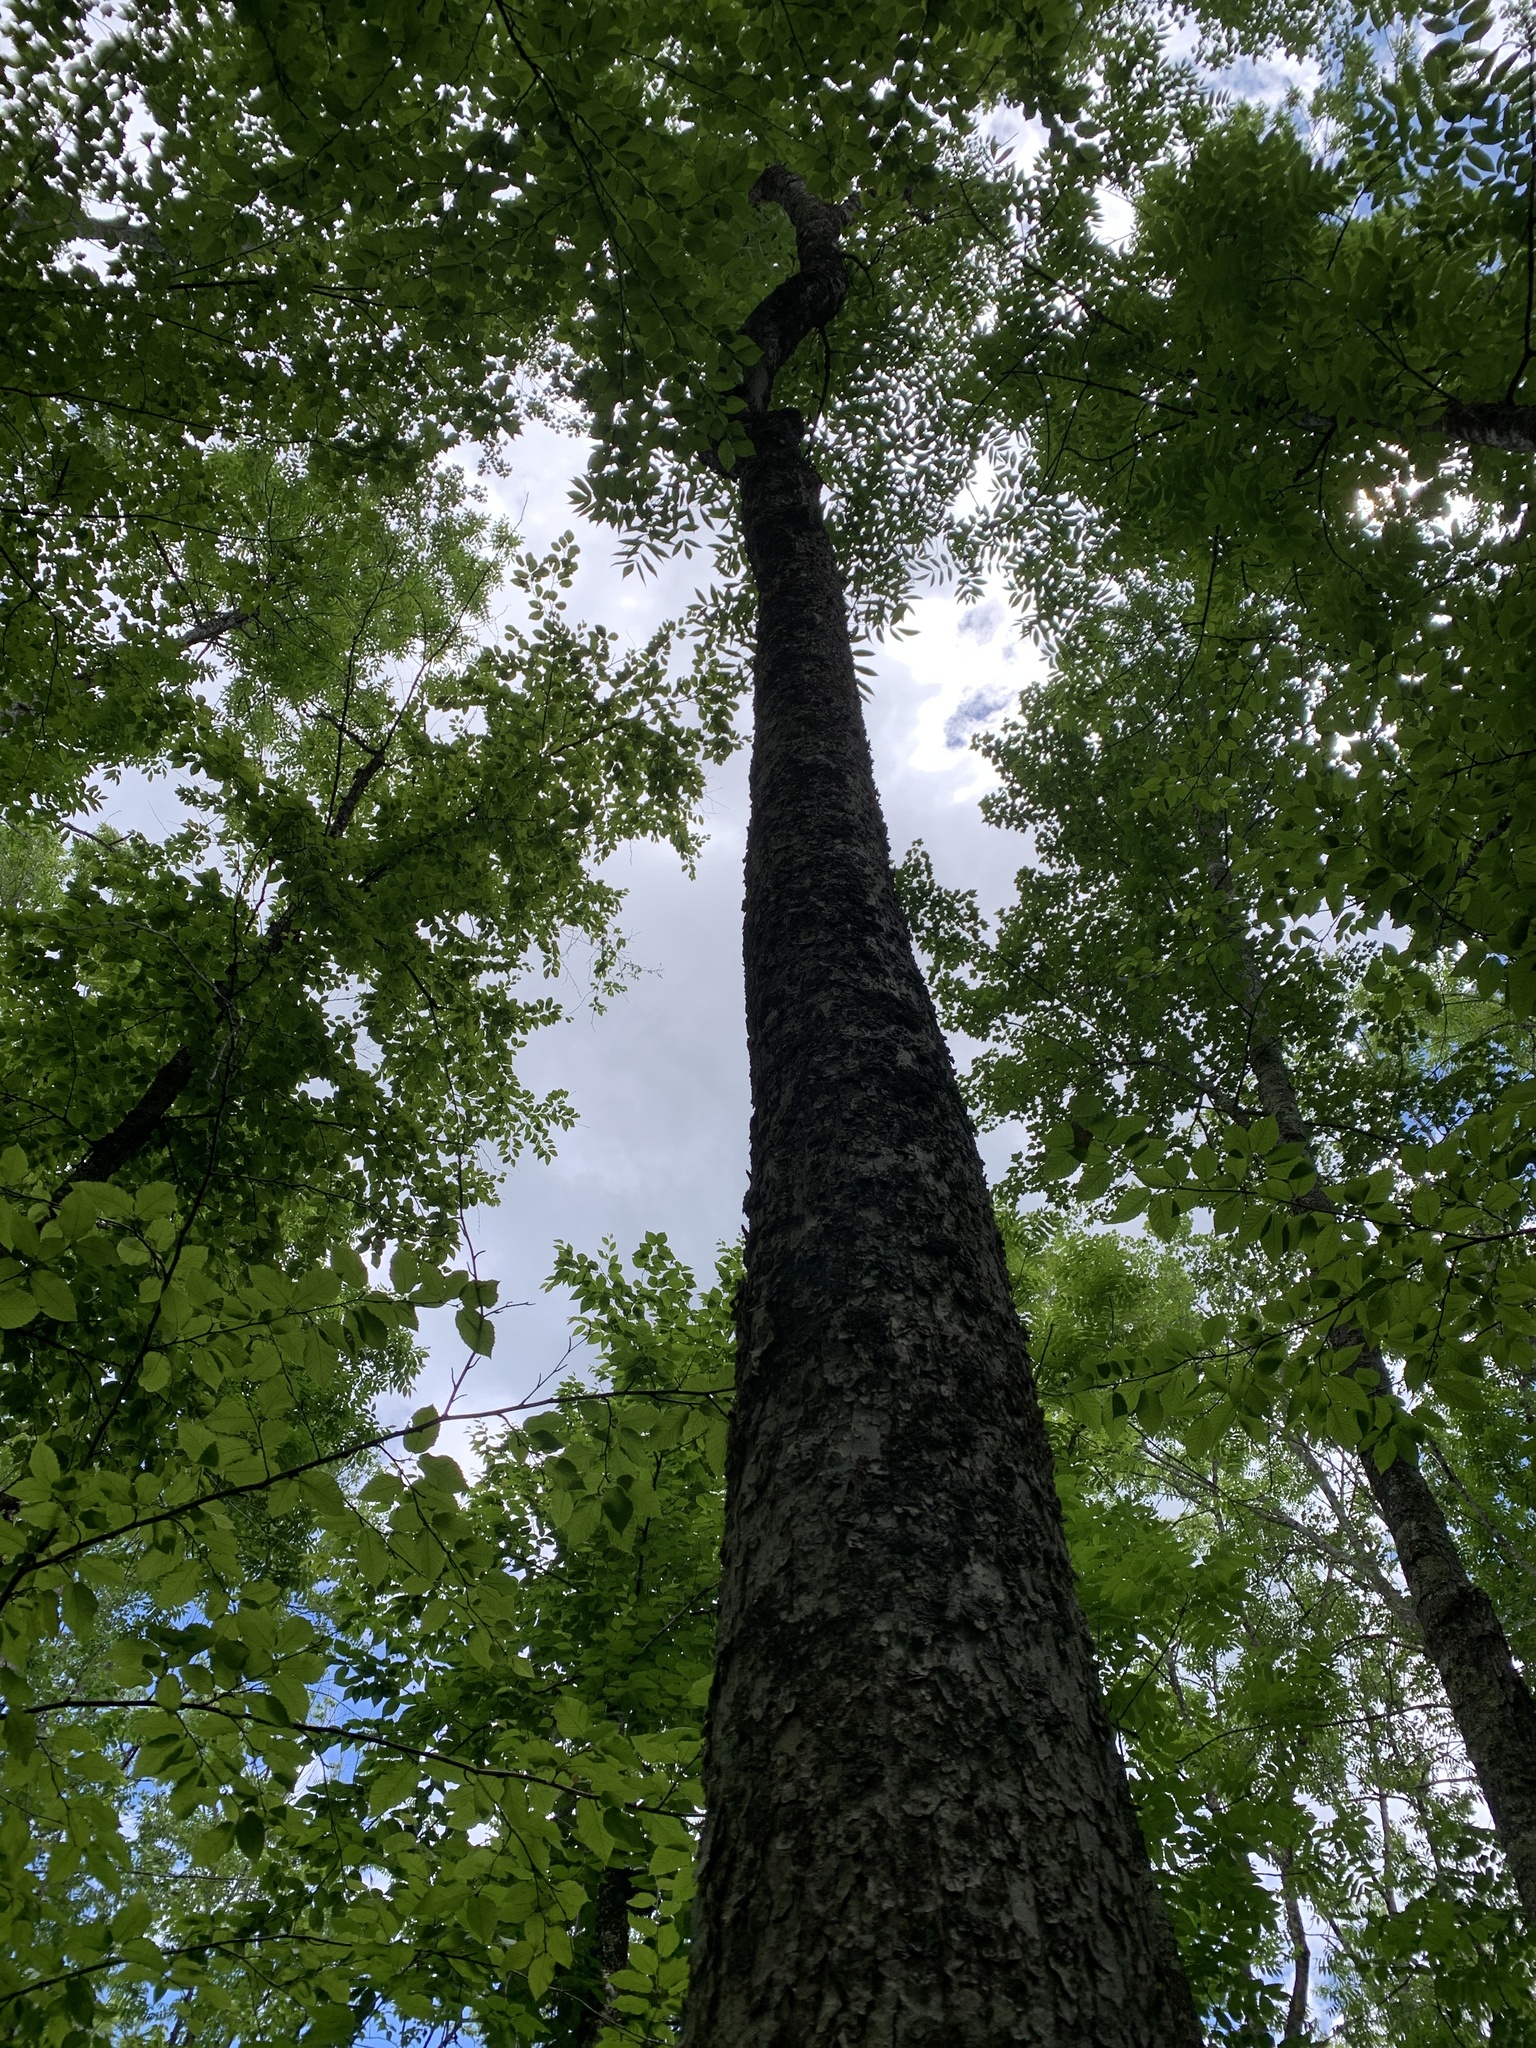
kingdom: Plantae
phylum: Tracheophyta
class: Magnoliopsida
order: Lamiales
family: Oleaceae
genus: Fraxinus
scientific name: Fraxinus nigra
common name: Black ash
